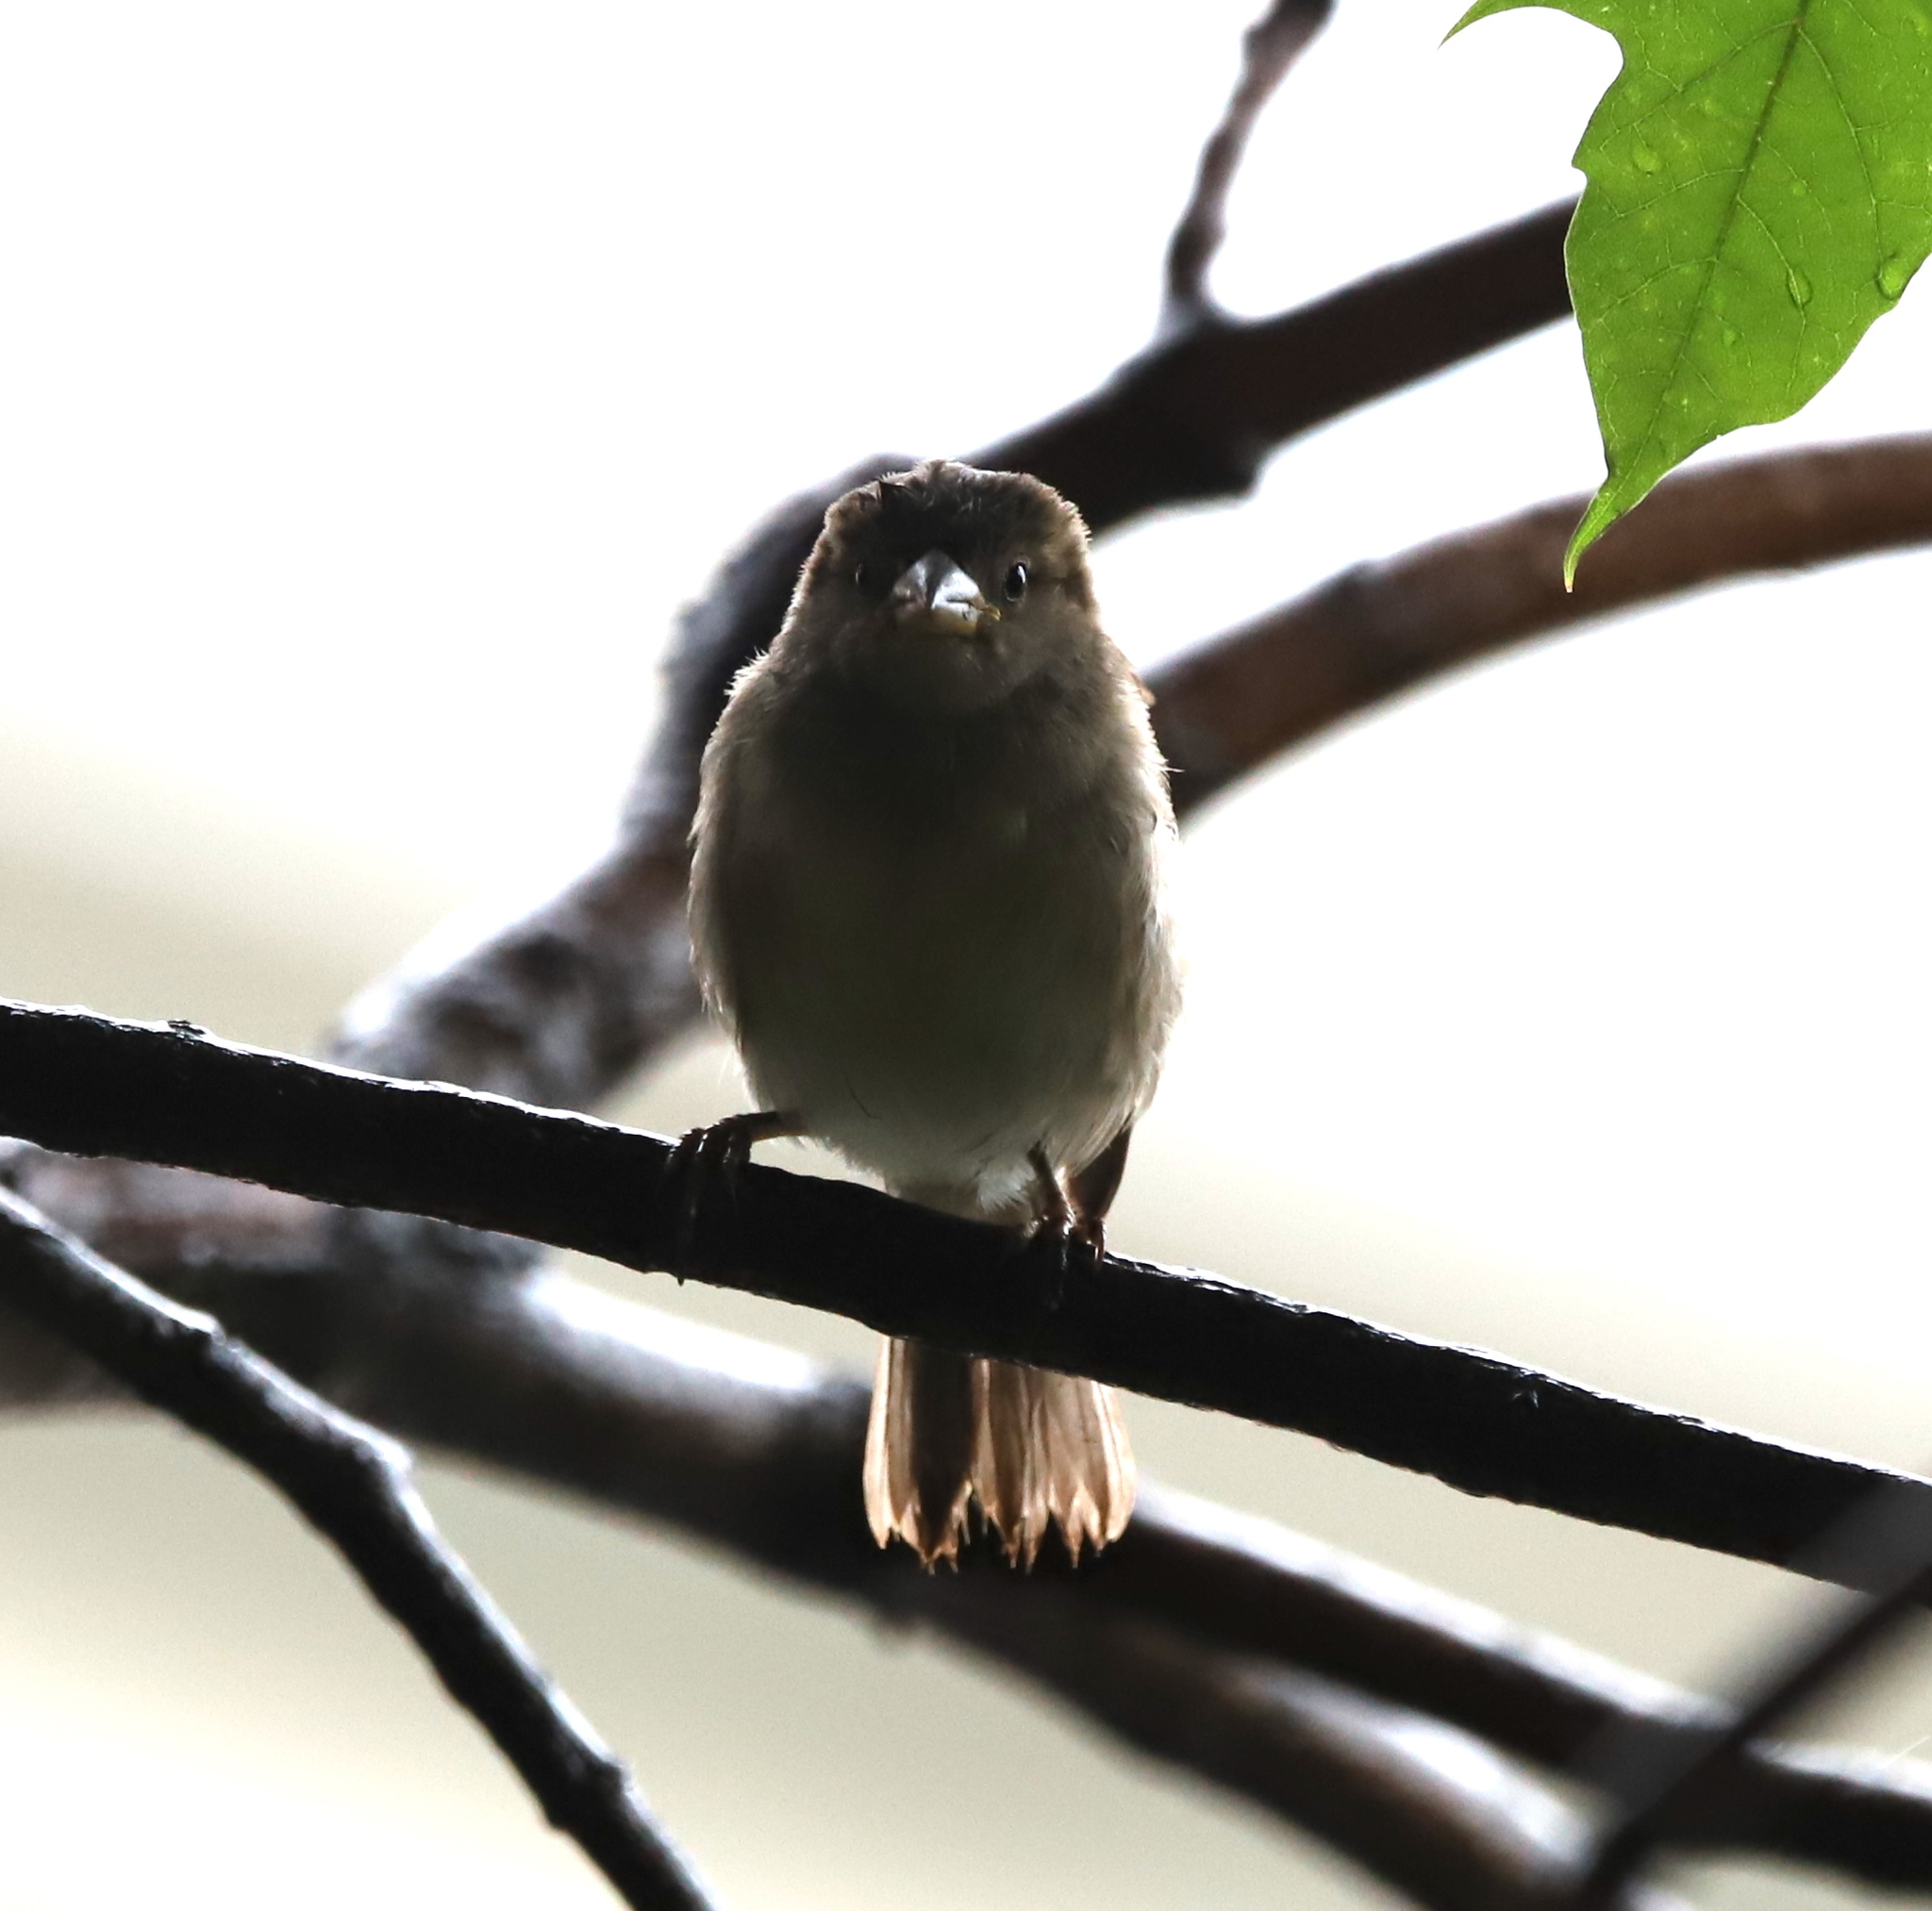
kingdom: Animalia
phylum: Chordata
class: Aves
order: Passeriformes
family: Passeridae
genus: Passer
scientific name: Passer domesticus
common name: House sparrow
